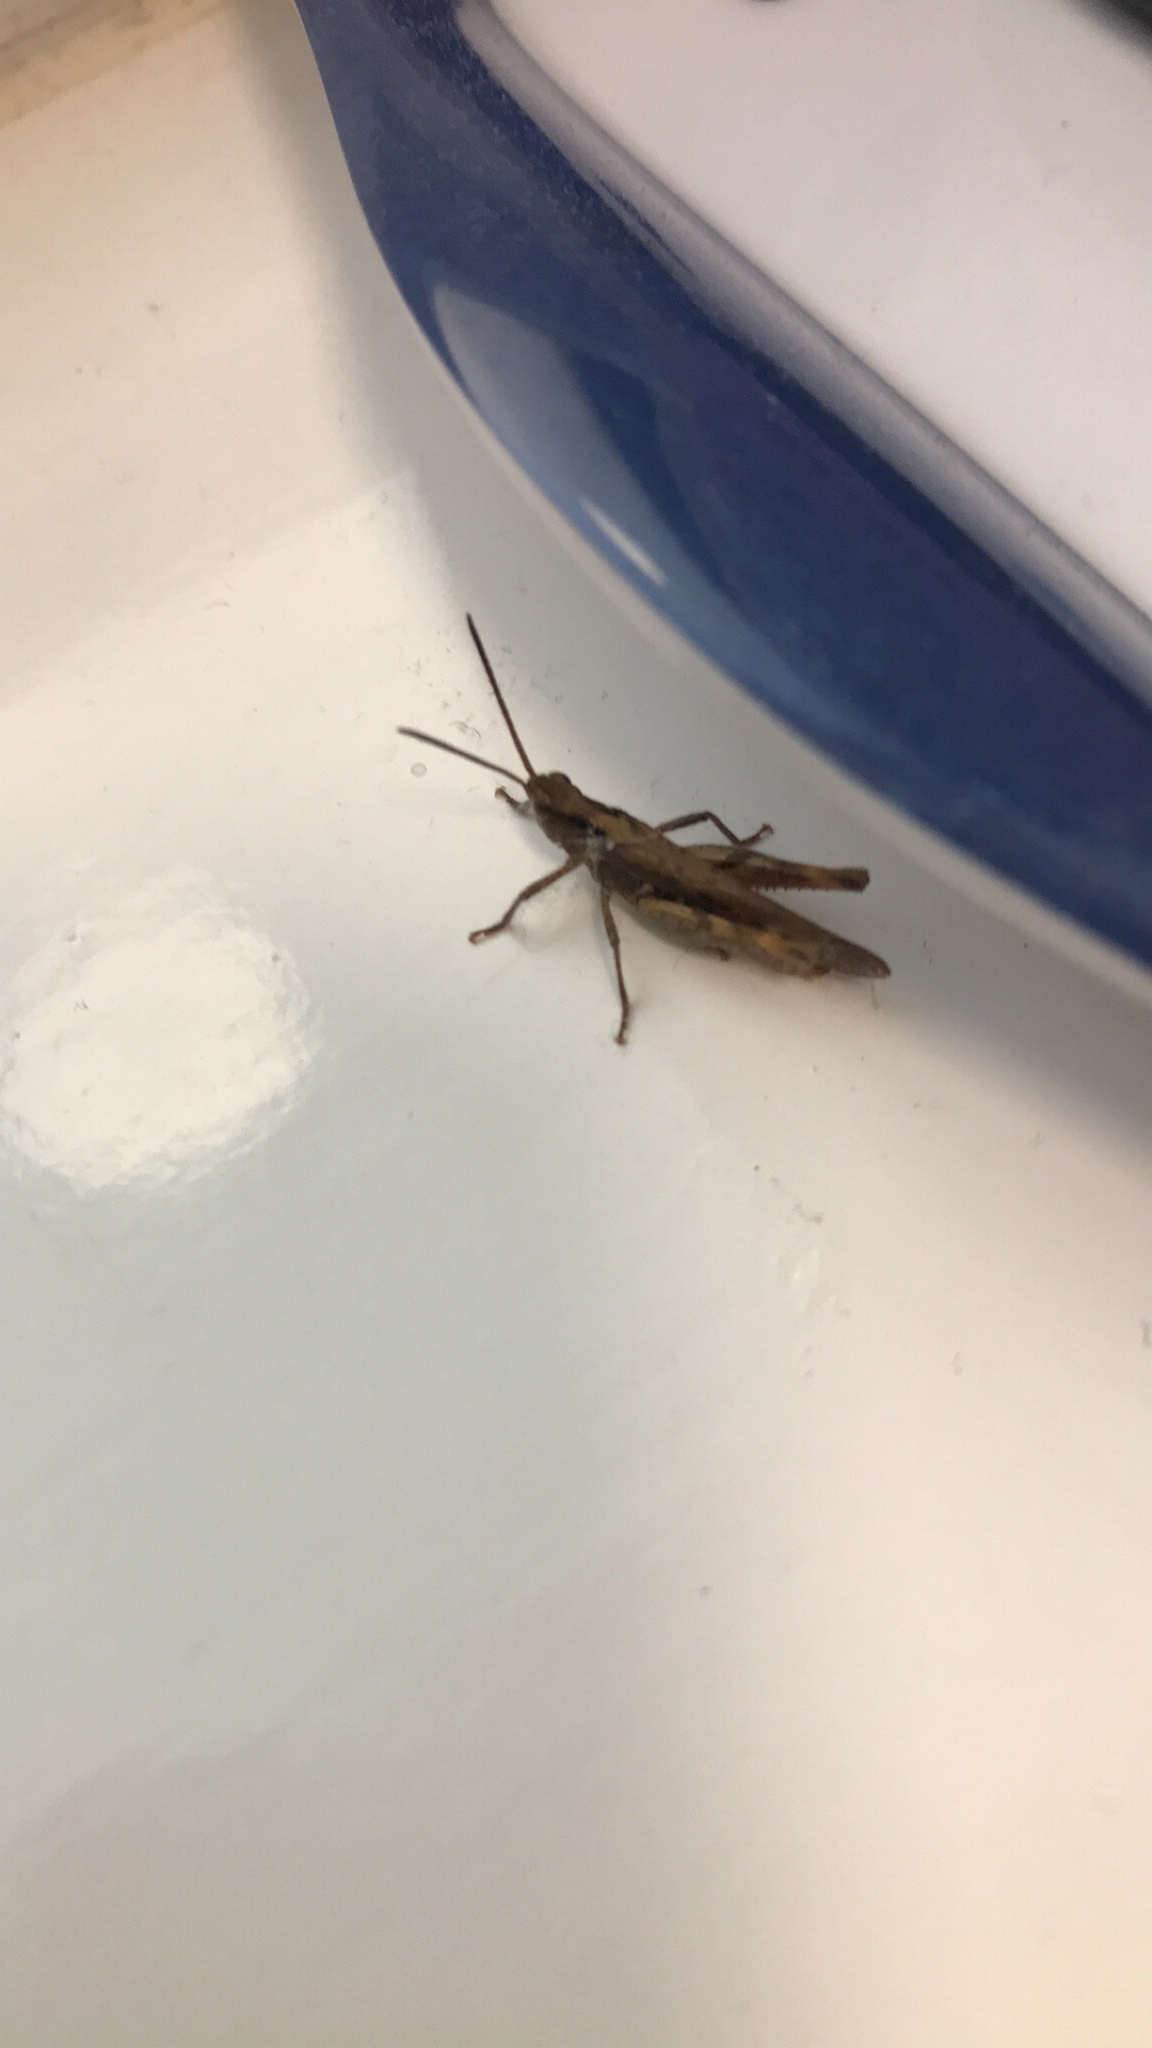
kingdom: Animalia
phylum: Arthropoda
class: Insecta
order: Orthoptera
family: Acrididae
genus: Chorthippus
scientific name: Chorthippus brunneus
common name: Field grasshopper
